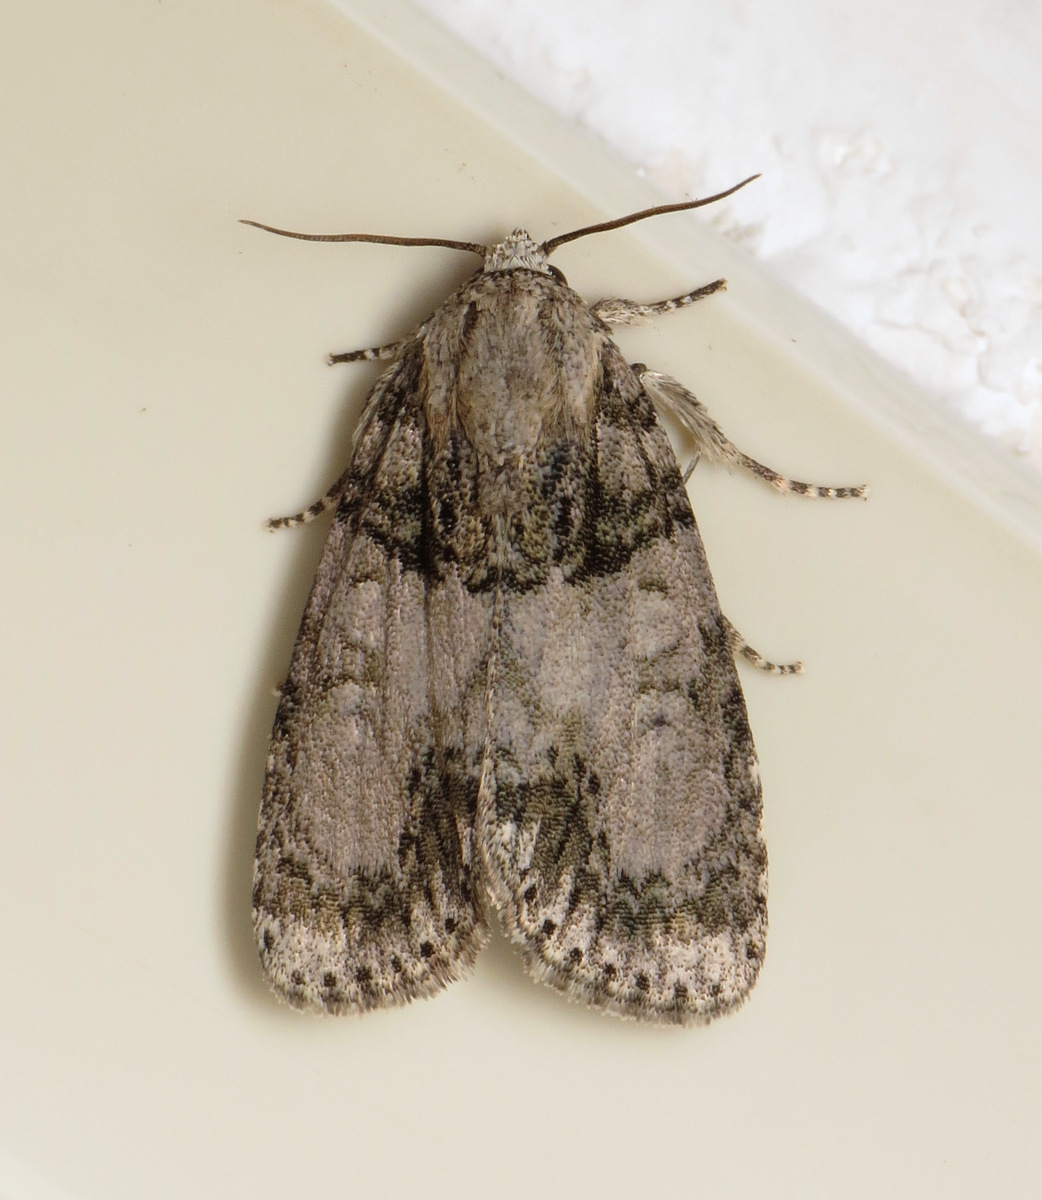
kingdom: Animalia
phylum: Arthropoda
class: Insecta
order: Lepidoptera
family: Noctuidae
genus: Acronicta
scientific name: Acronicta retardata
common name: Maple dagger
